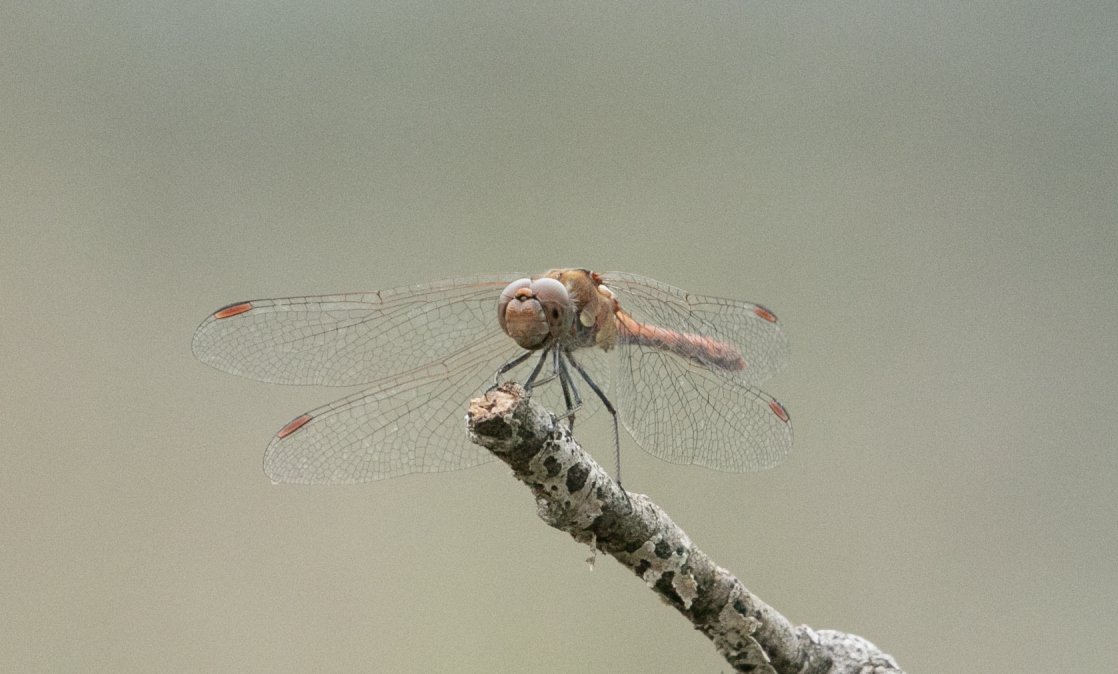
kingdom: Animalia
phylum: Arthropoda
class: Insecta
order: Odonata
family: Libellulidae
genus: Sympetrum
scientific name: Sympetrum striolatum
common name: Common darter
